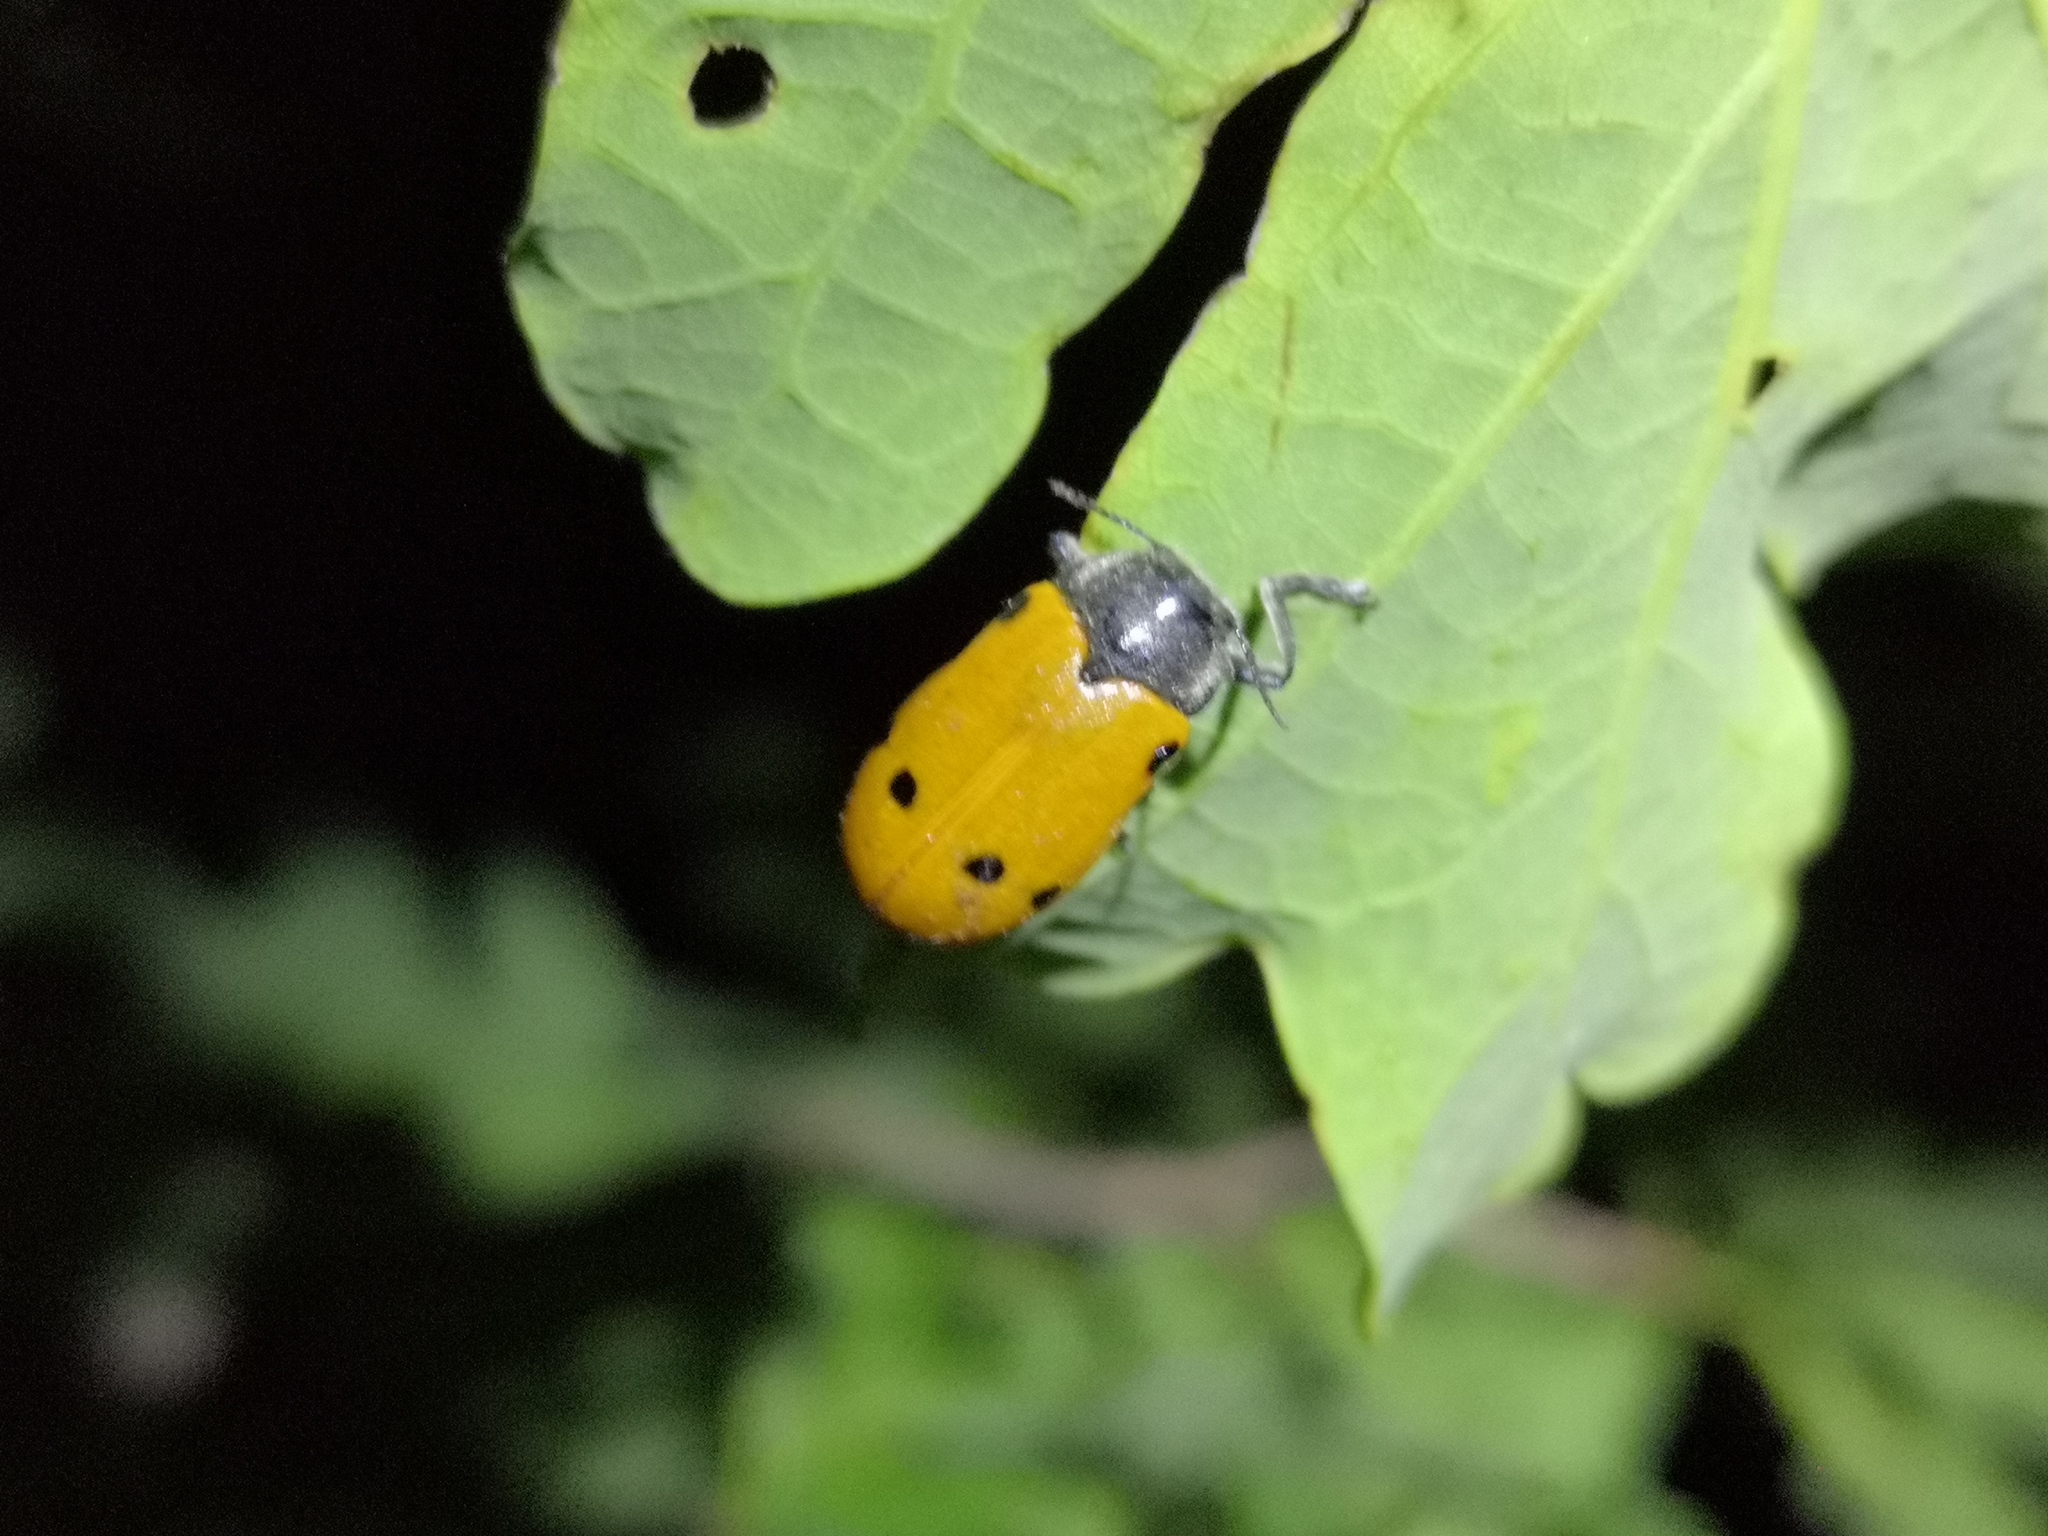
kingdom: Animalia
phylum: Arthropoda
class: Insecta
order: Coleoptera
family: Chrysomelidae
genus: Lachnaia
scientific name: Lachnaia sexpunctata
